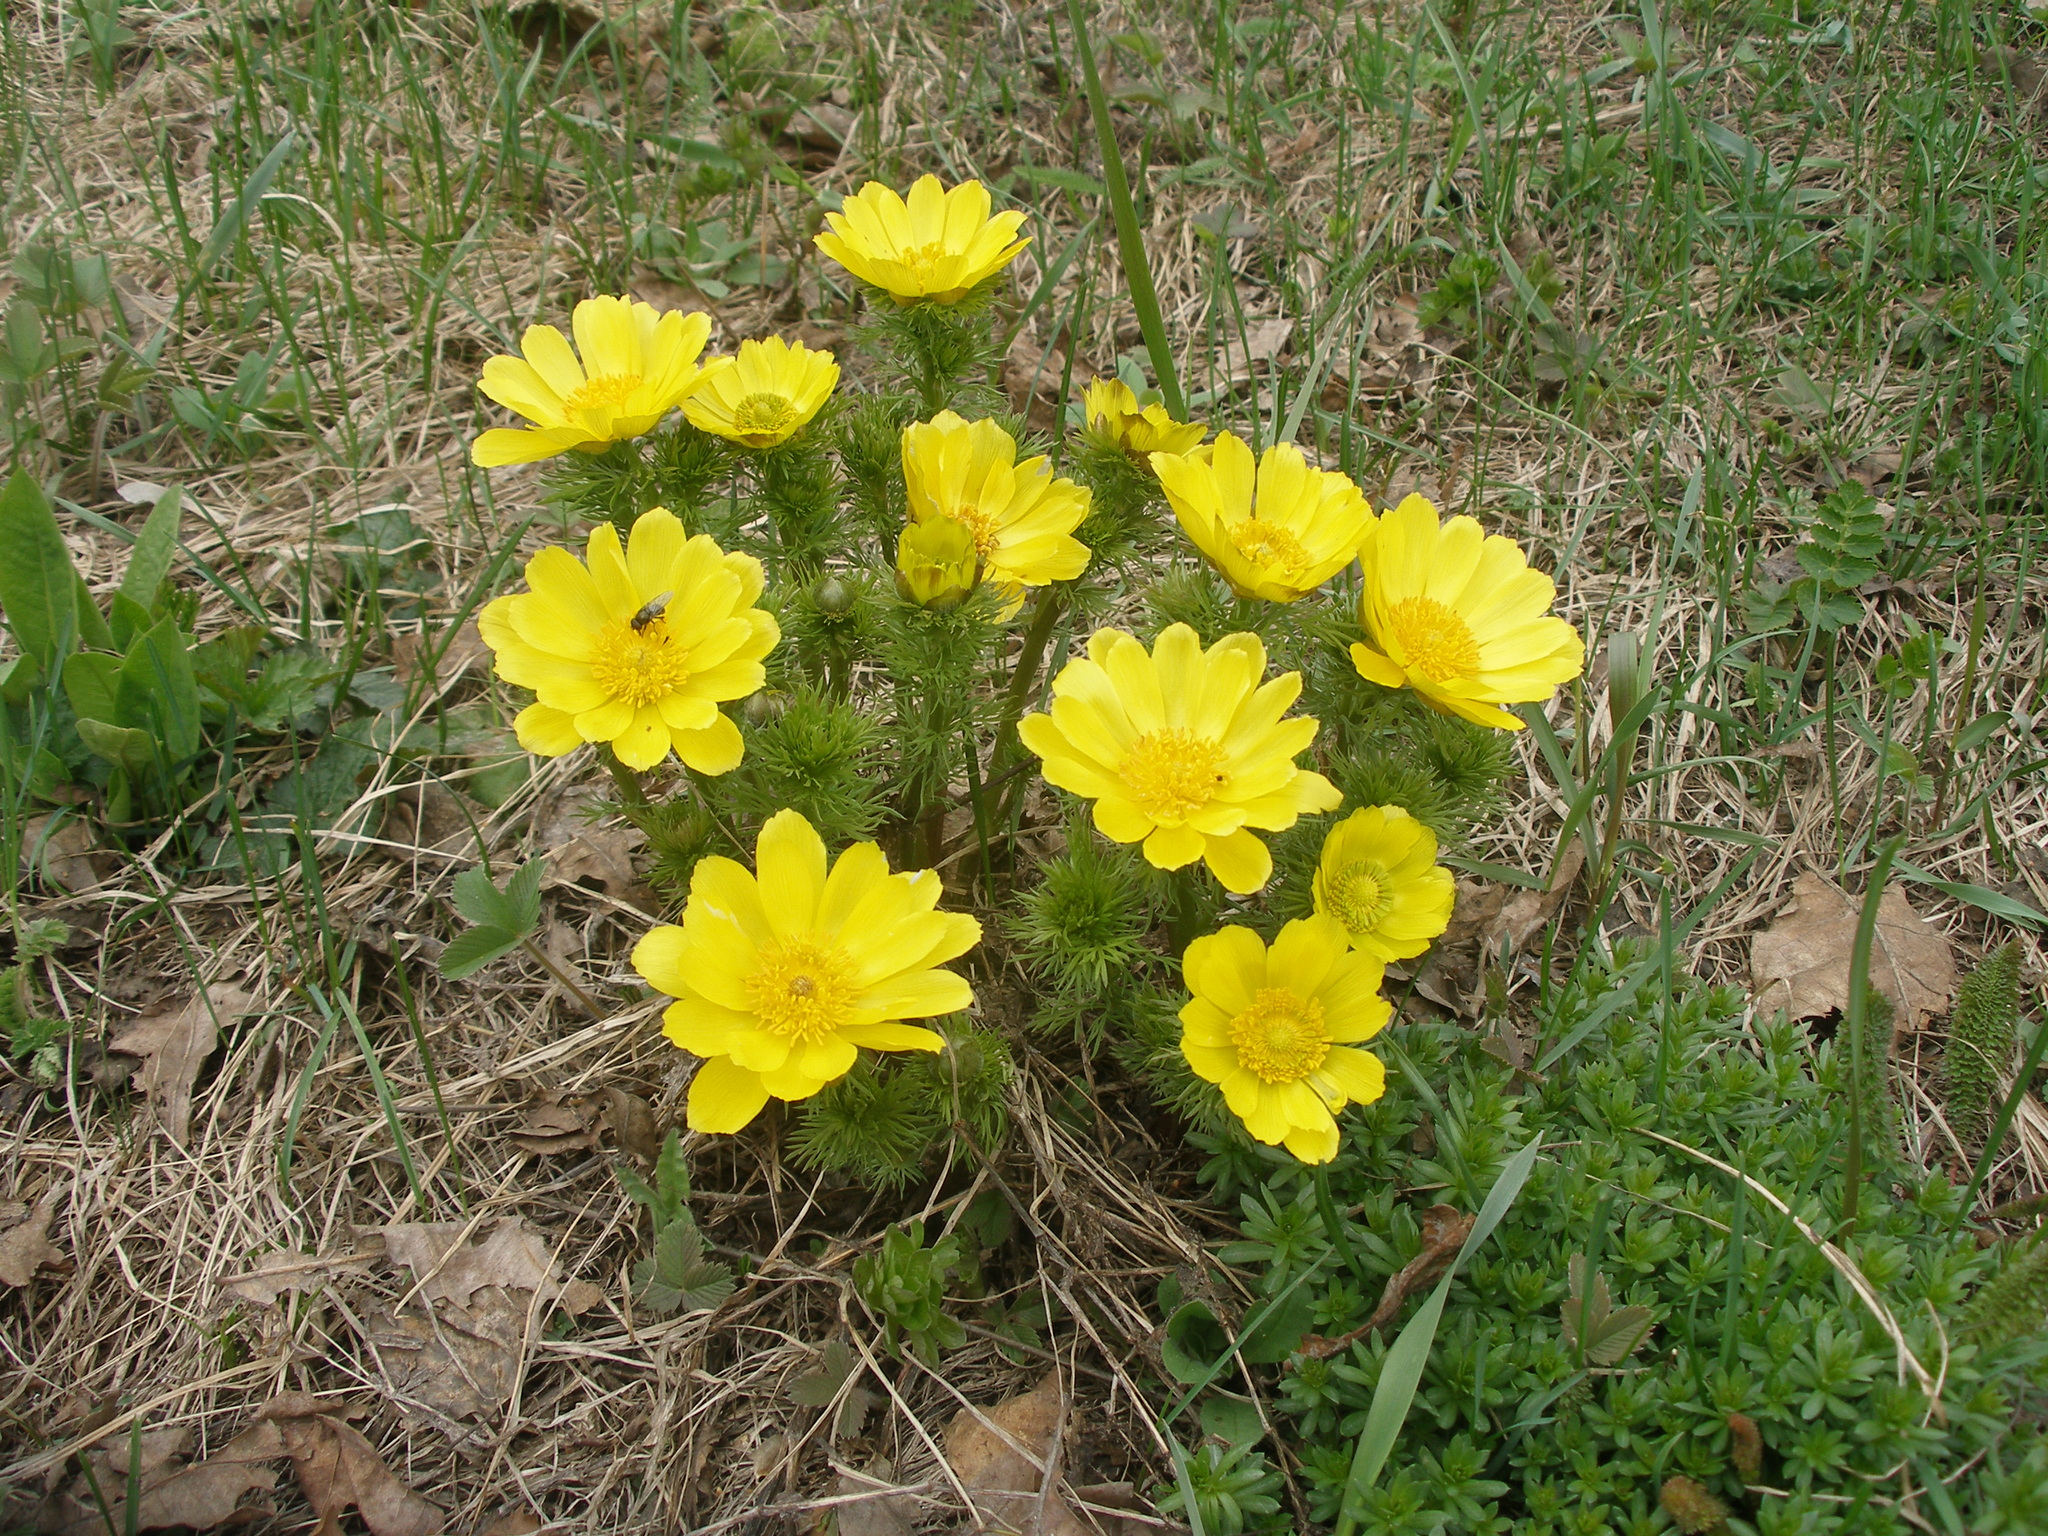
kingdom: Plantae
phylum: Tracheophyta
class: Magnoliopsida
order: Ranunculales
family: Ranunculaceae
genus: Adonis
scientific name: Adonis vernalis
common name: Yellow pheasants-eye
